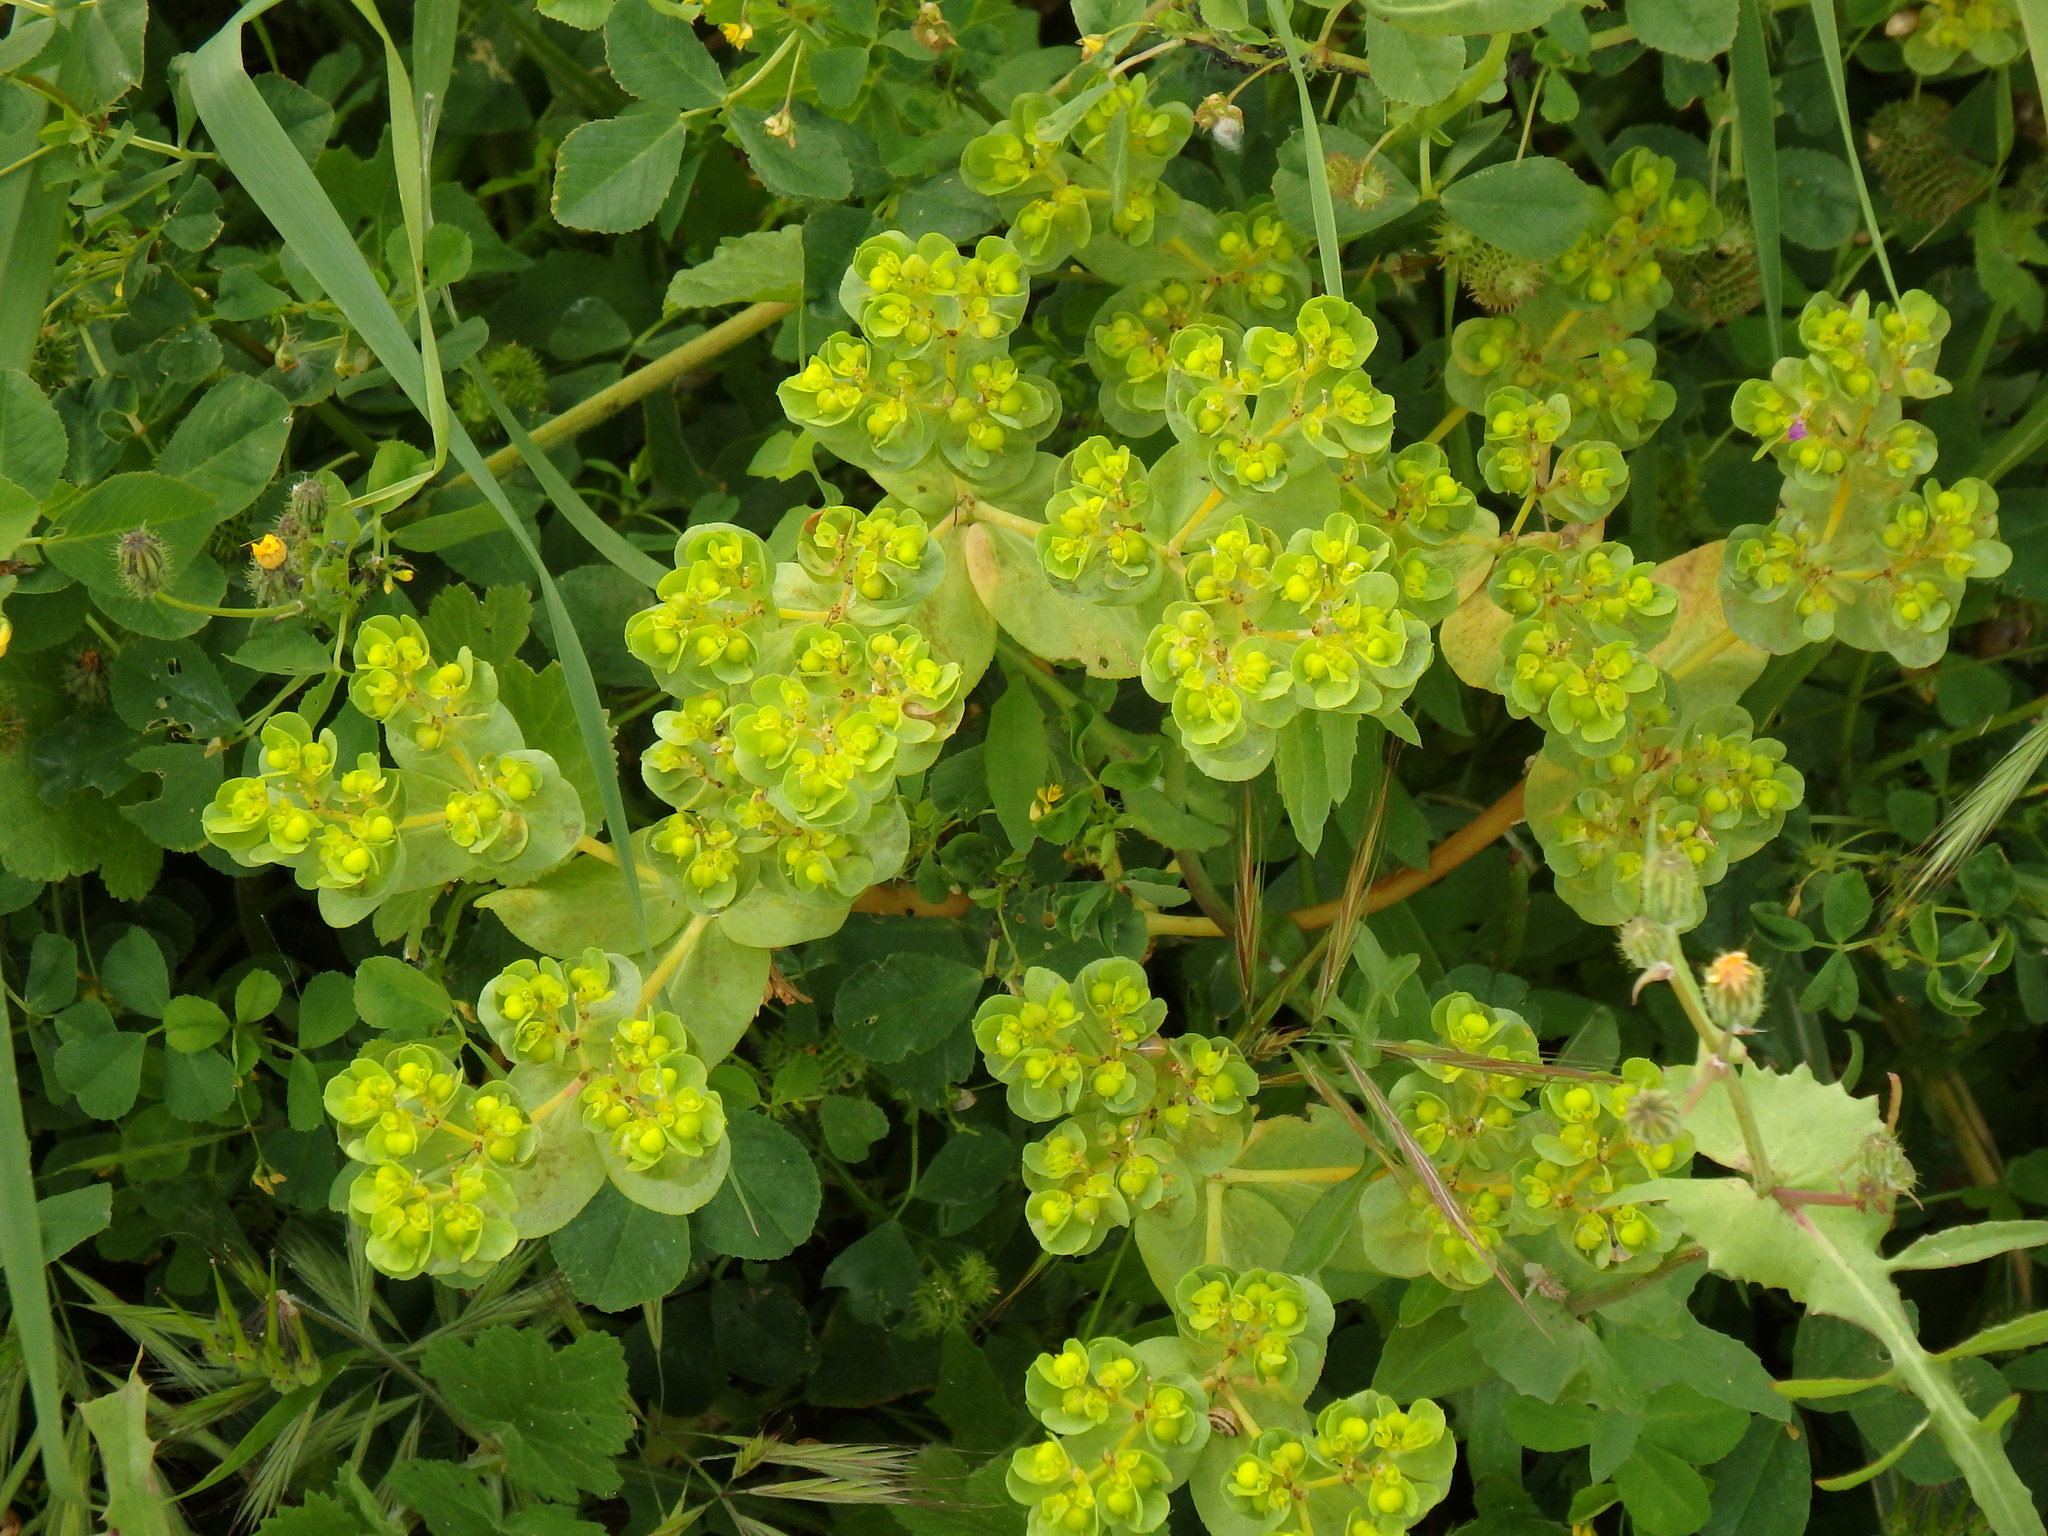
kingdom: Plantae
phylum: Tracheophyta
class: Magnoliopsida
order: Malpighiales
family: Euphorbiaceae
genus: Euphorbia
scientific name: Euphorbia helioscopia
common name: Sun spurge
